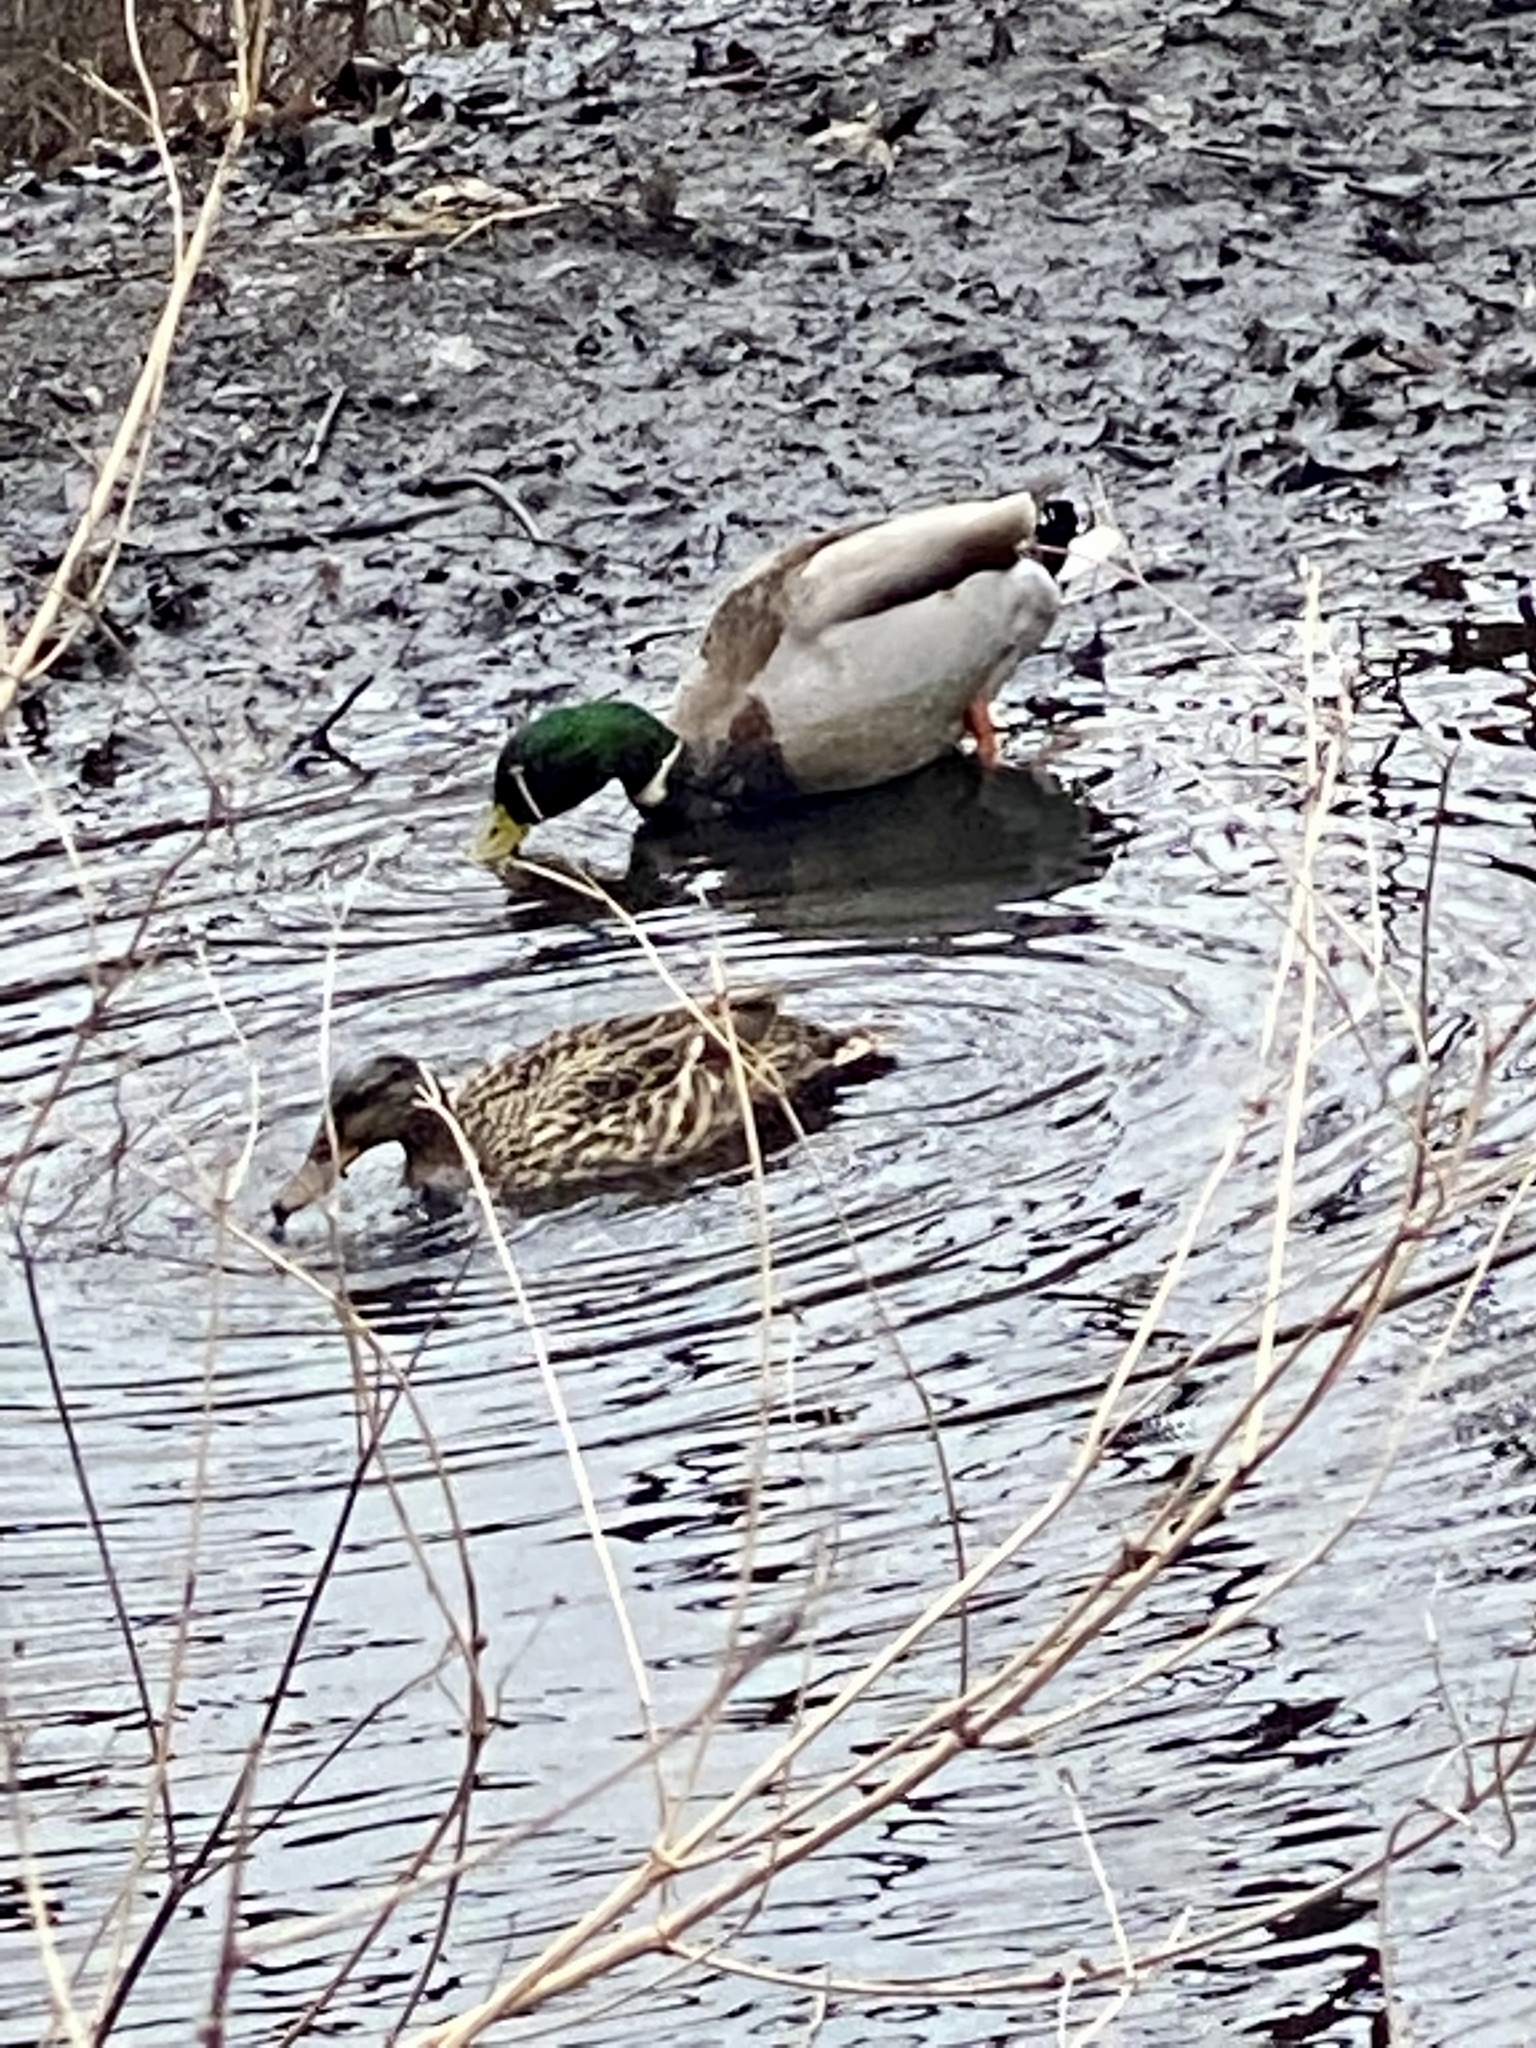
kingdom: Animalia
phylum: Chordata
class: Aves
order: Anseriformes
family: Anatidae
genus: Anas
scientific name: Anas platyrhynchos
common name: Mallard
